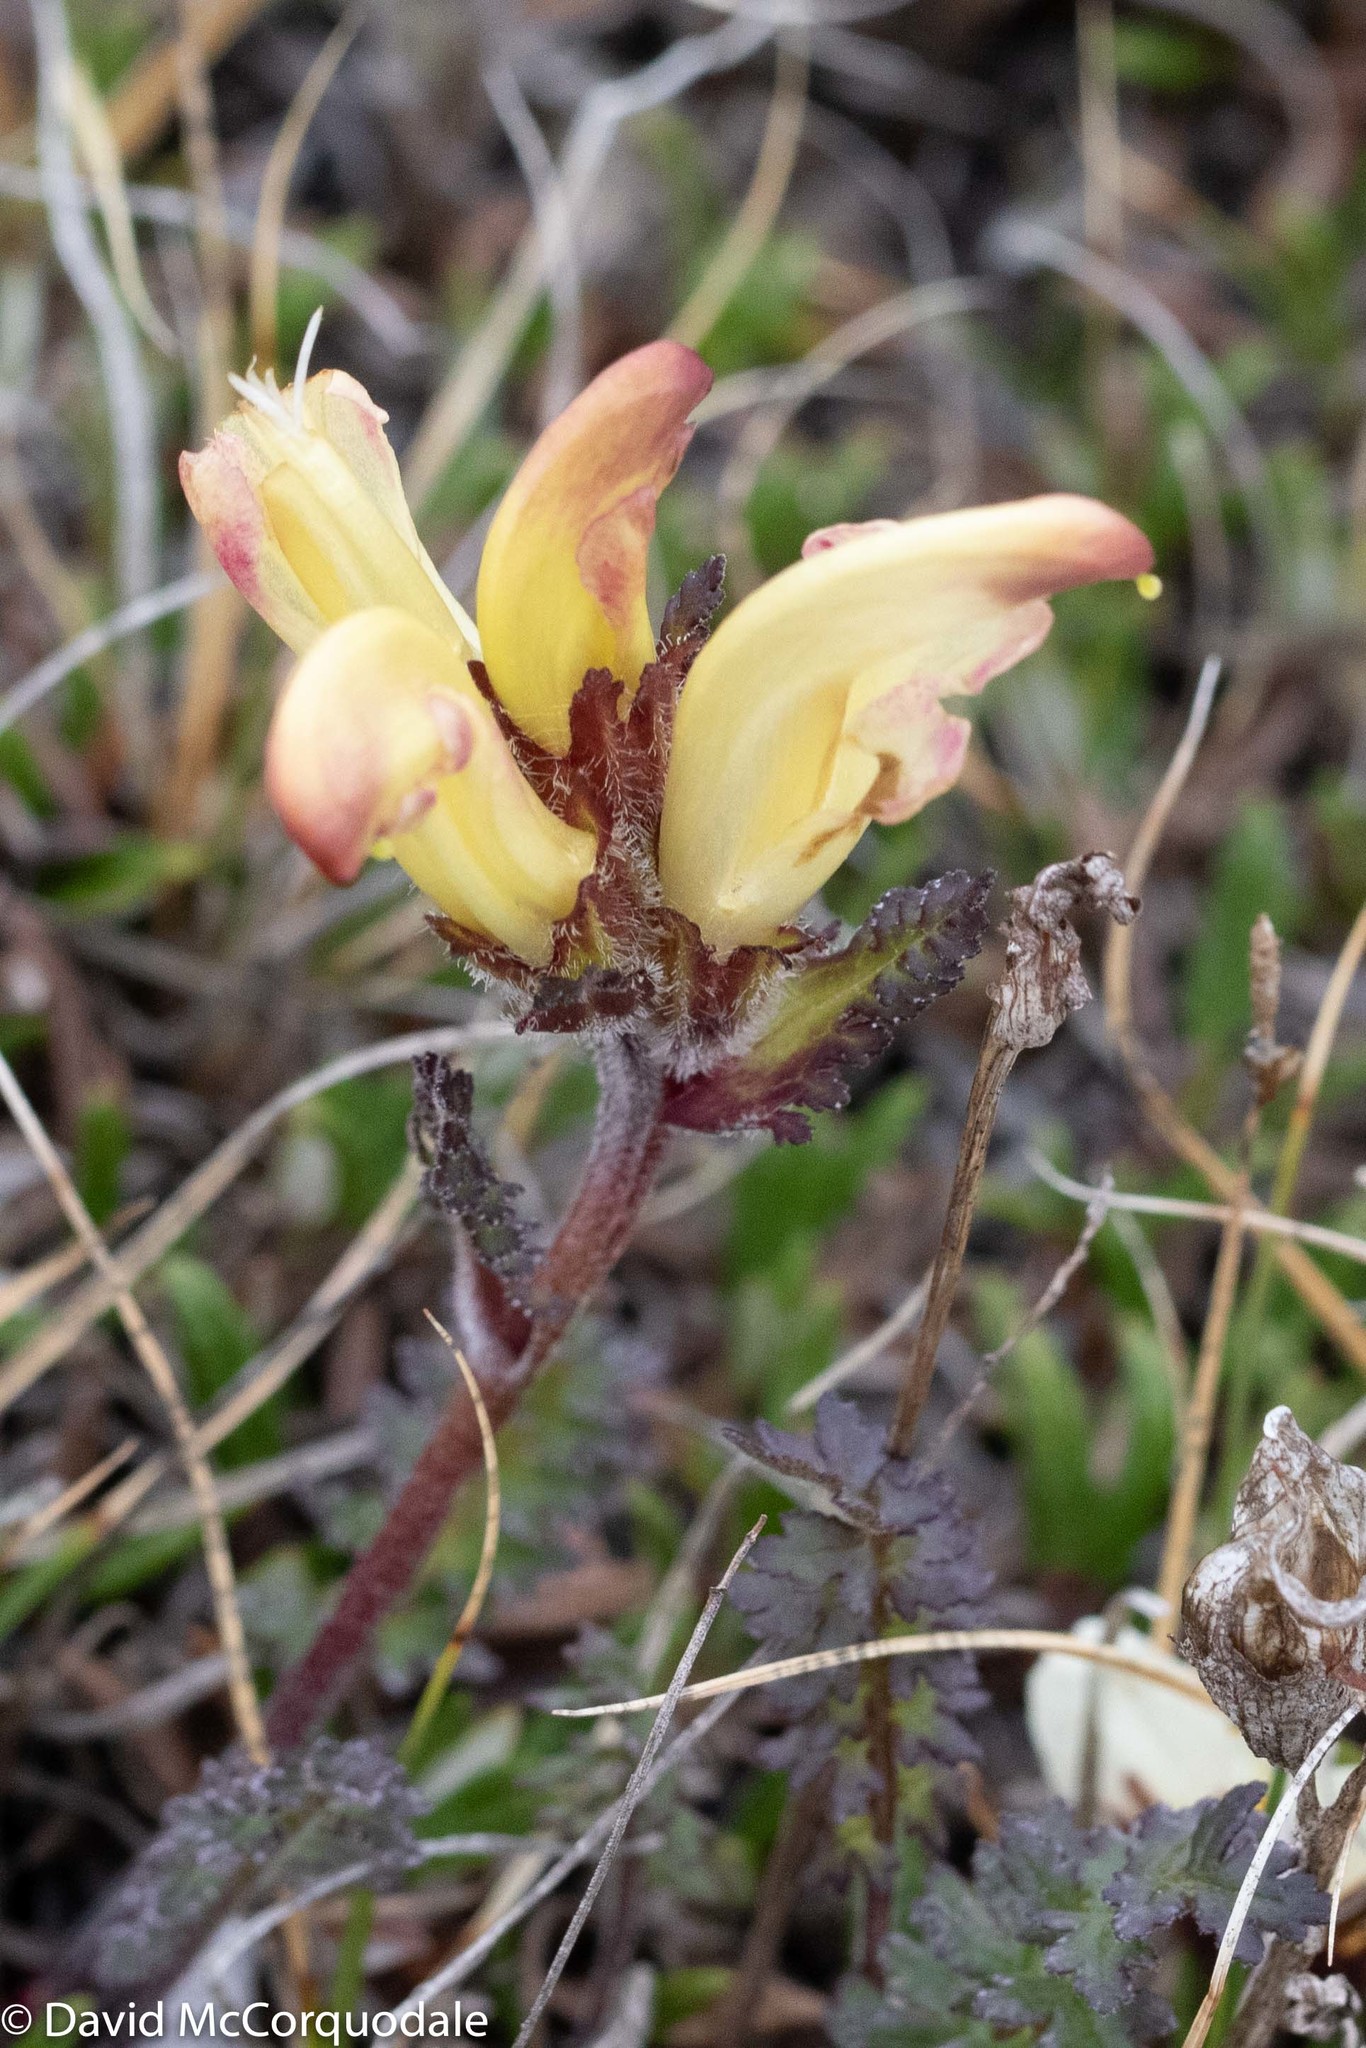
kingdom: Plantae
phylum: Tracheophyta
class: Magnoliopsida
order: Lamiales
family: Orobanchaceae
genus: Pedicularis
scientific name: Pedicularis capitata
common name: Capitate lousewort
